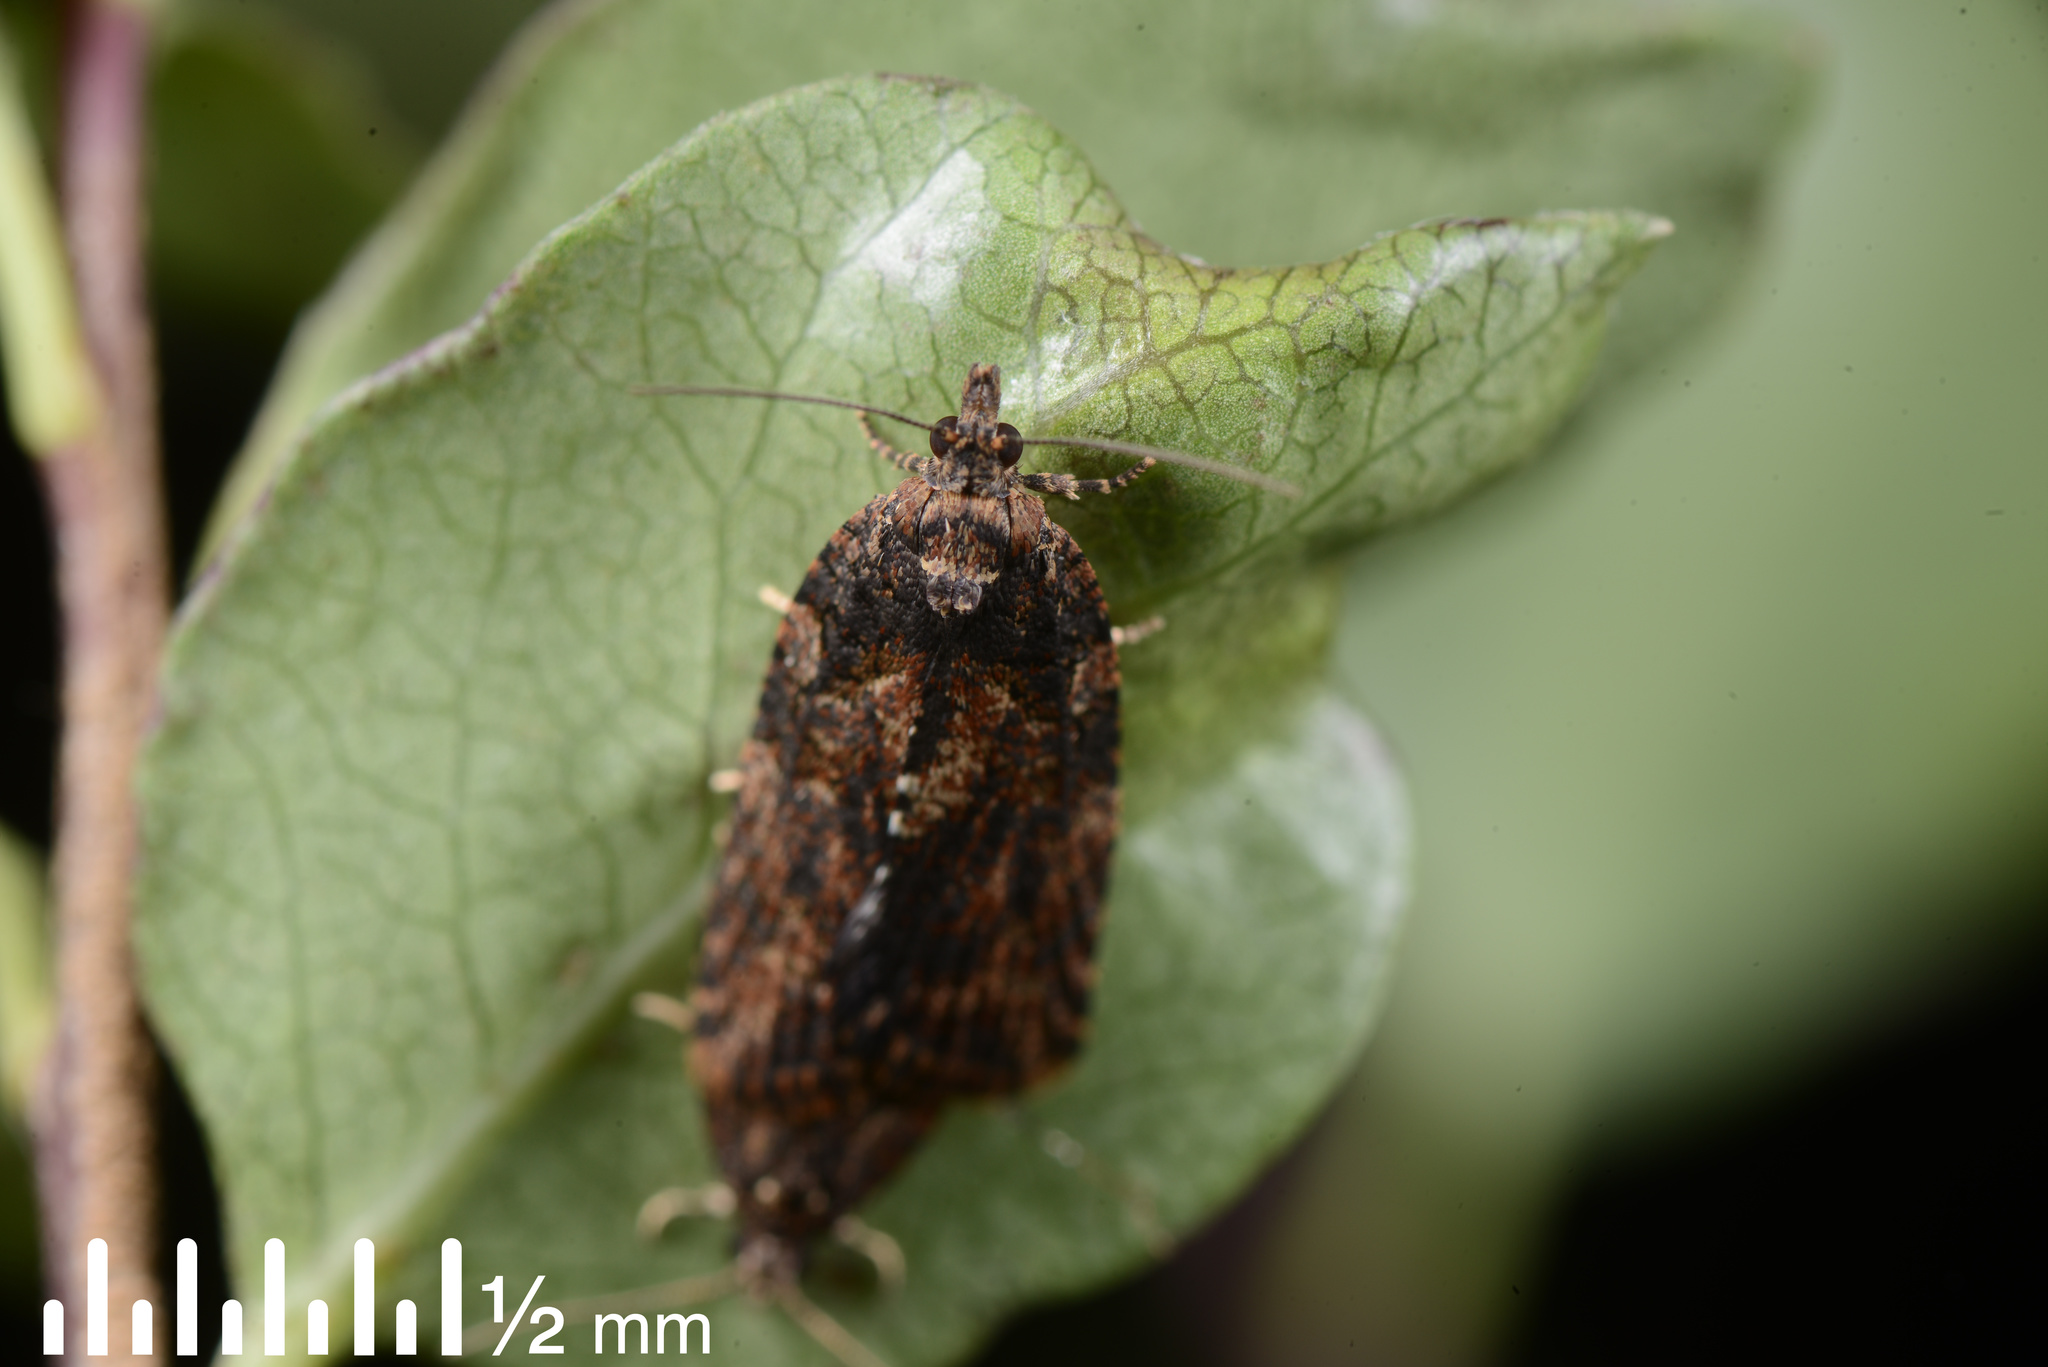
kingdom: Animalia
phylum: Arthropoda
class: Insecta
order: Lepidoptera
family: Tortricidae
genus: Capua
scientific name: Capua intractana
